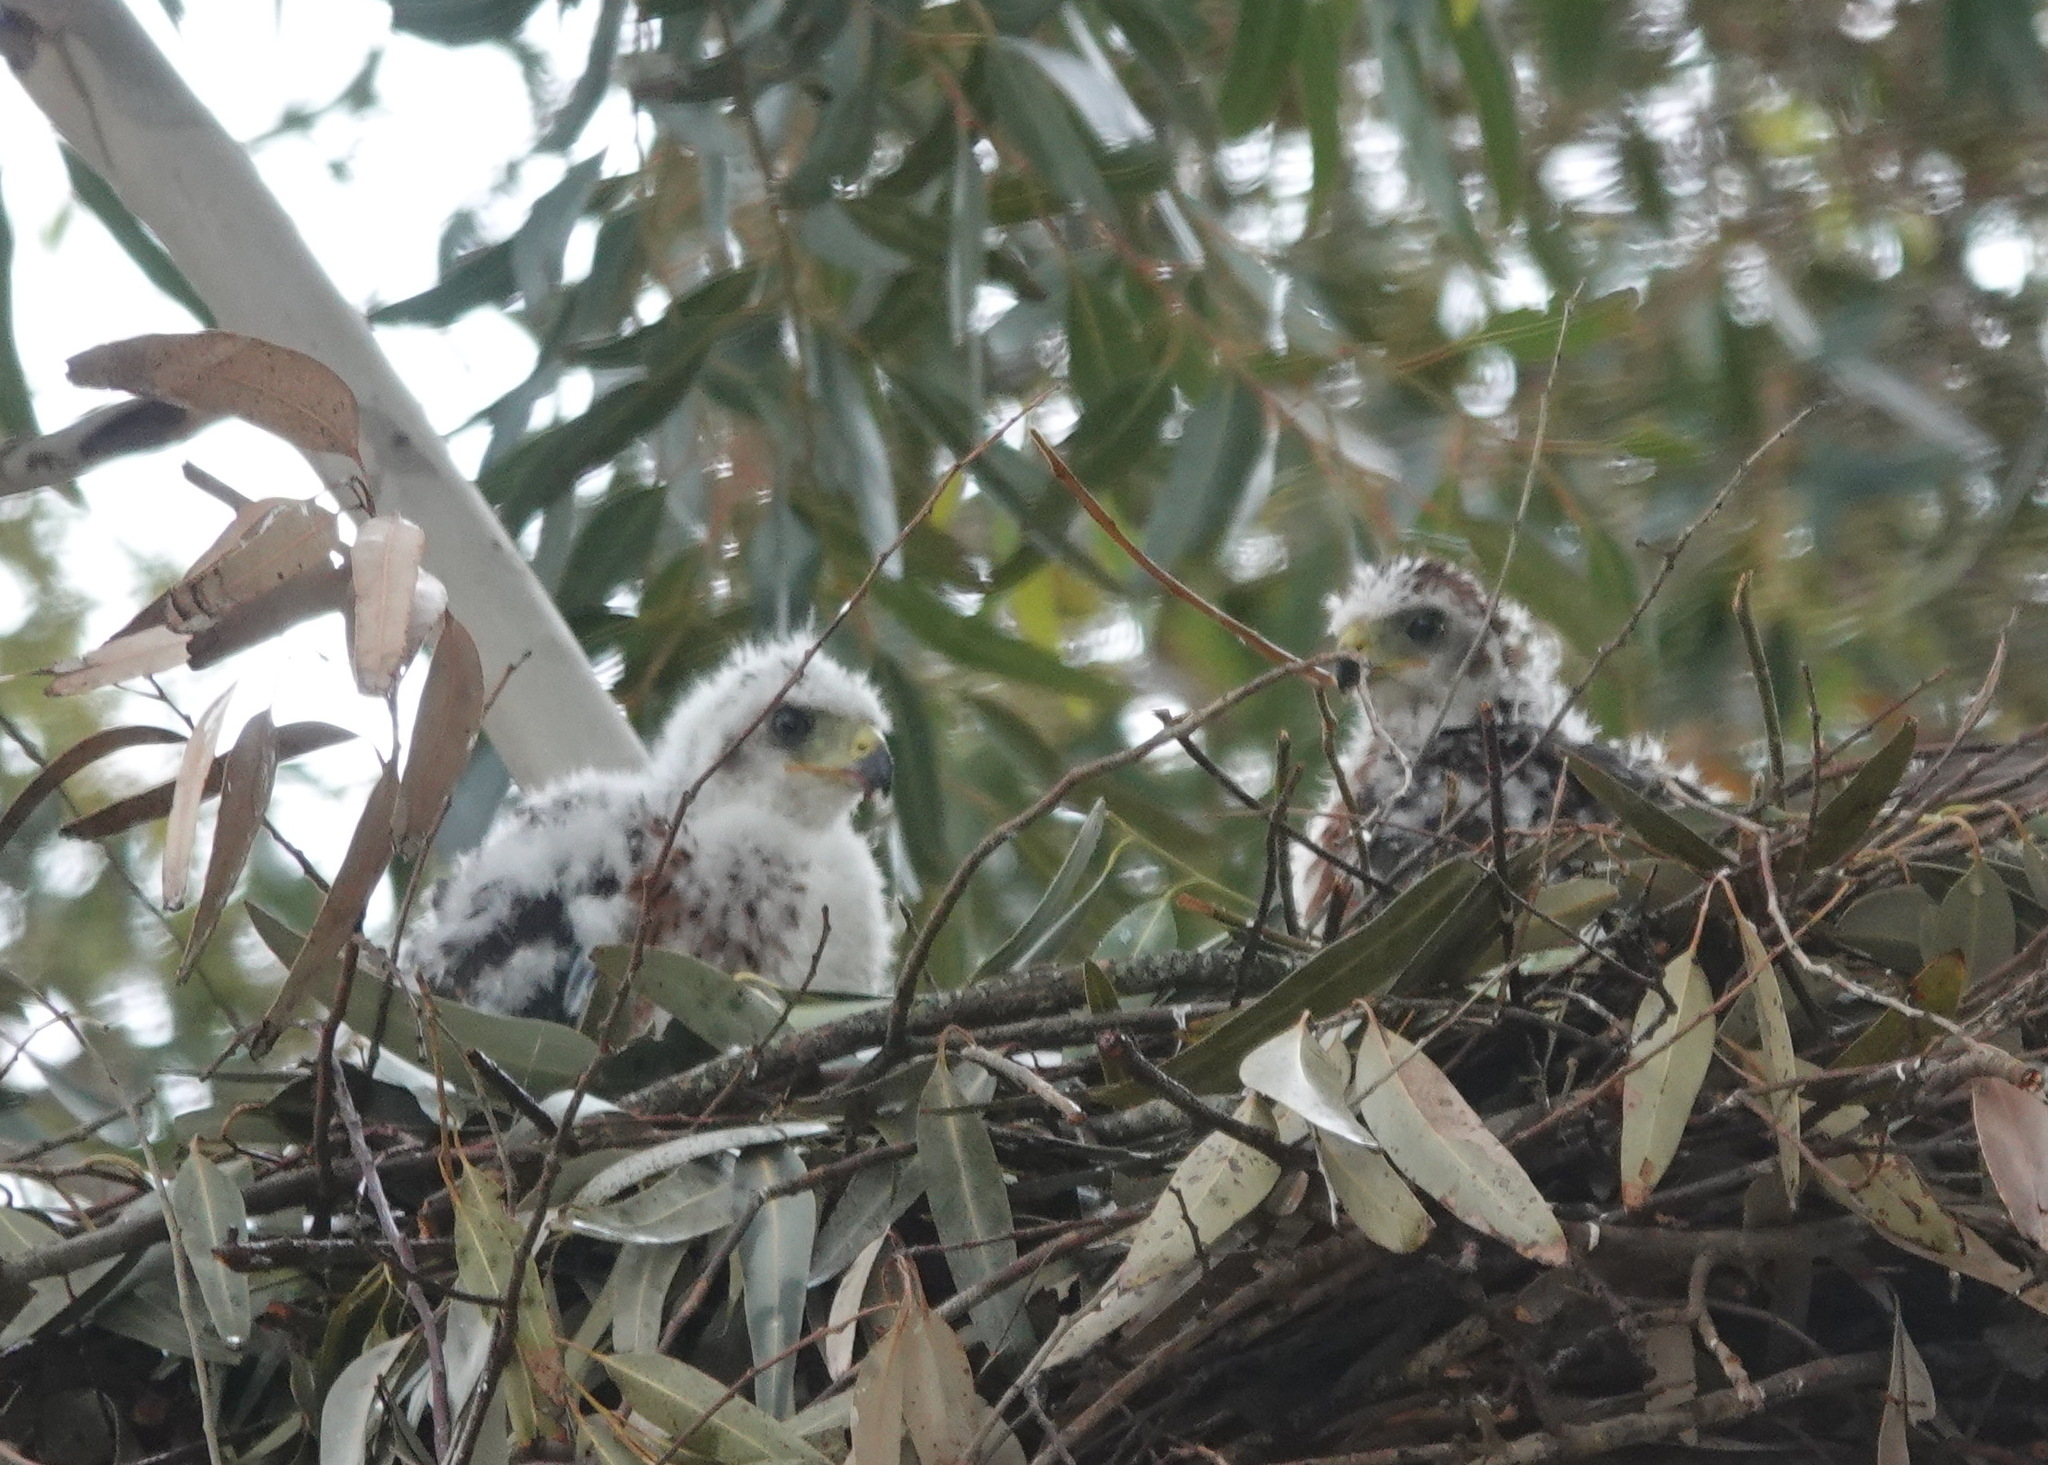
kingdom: Animalia
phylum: Chordata
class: Aves
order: Accipitriformes
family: Accipitridae
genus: Accipiter
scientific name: Accipiter melanoleucus
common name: Black sparrowhawk
